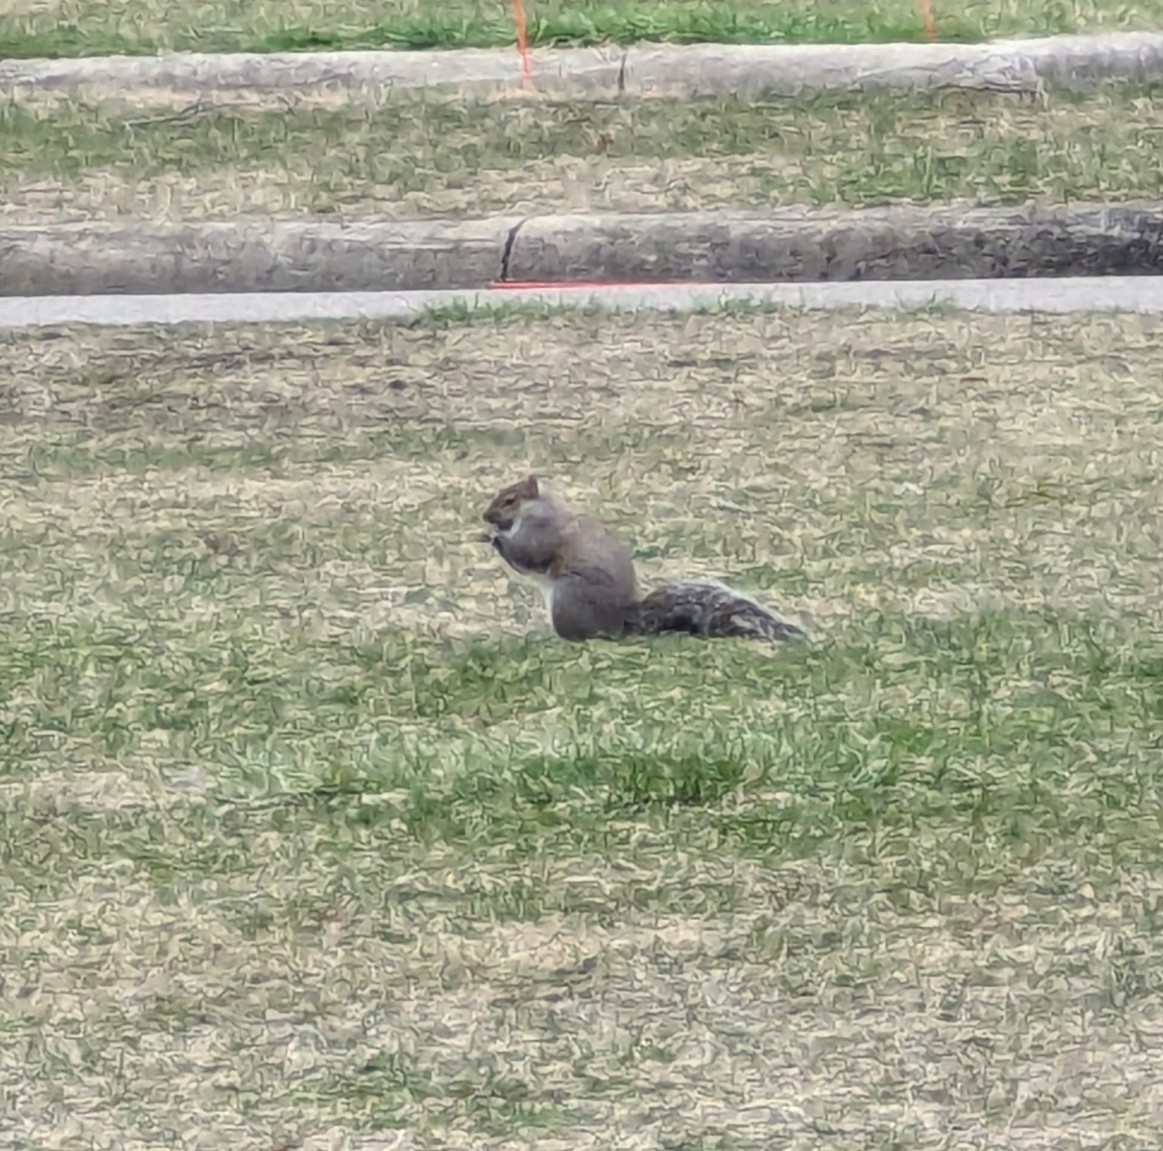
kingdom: Animalia
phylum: Chordata
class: Mammalia
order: Rodentia
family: Sciuridae
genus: Sciurus
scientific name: Sciurus carolinensis
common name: Eastern gray squirrel
